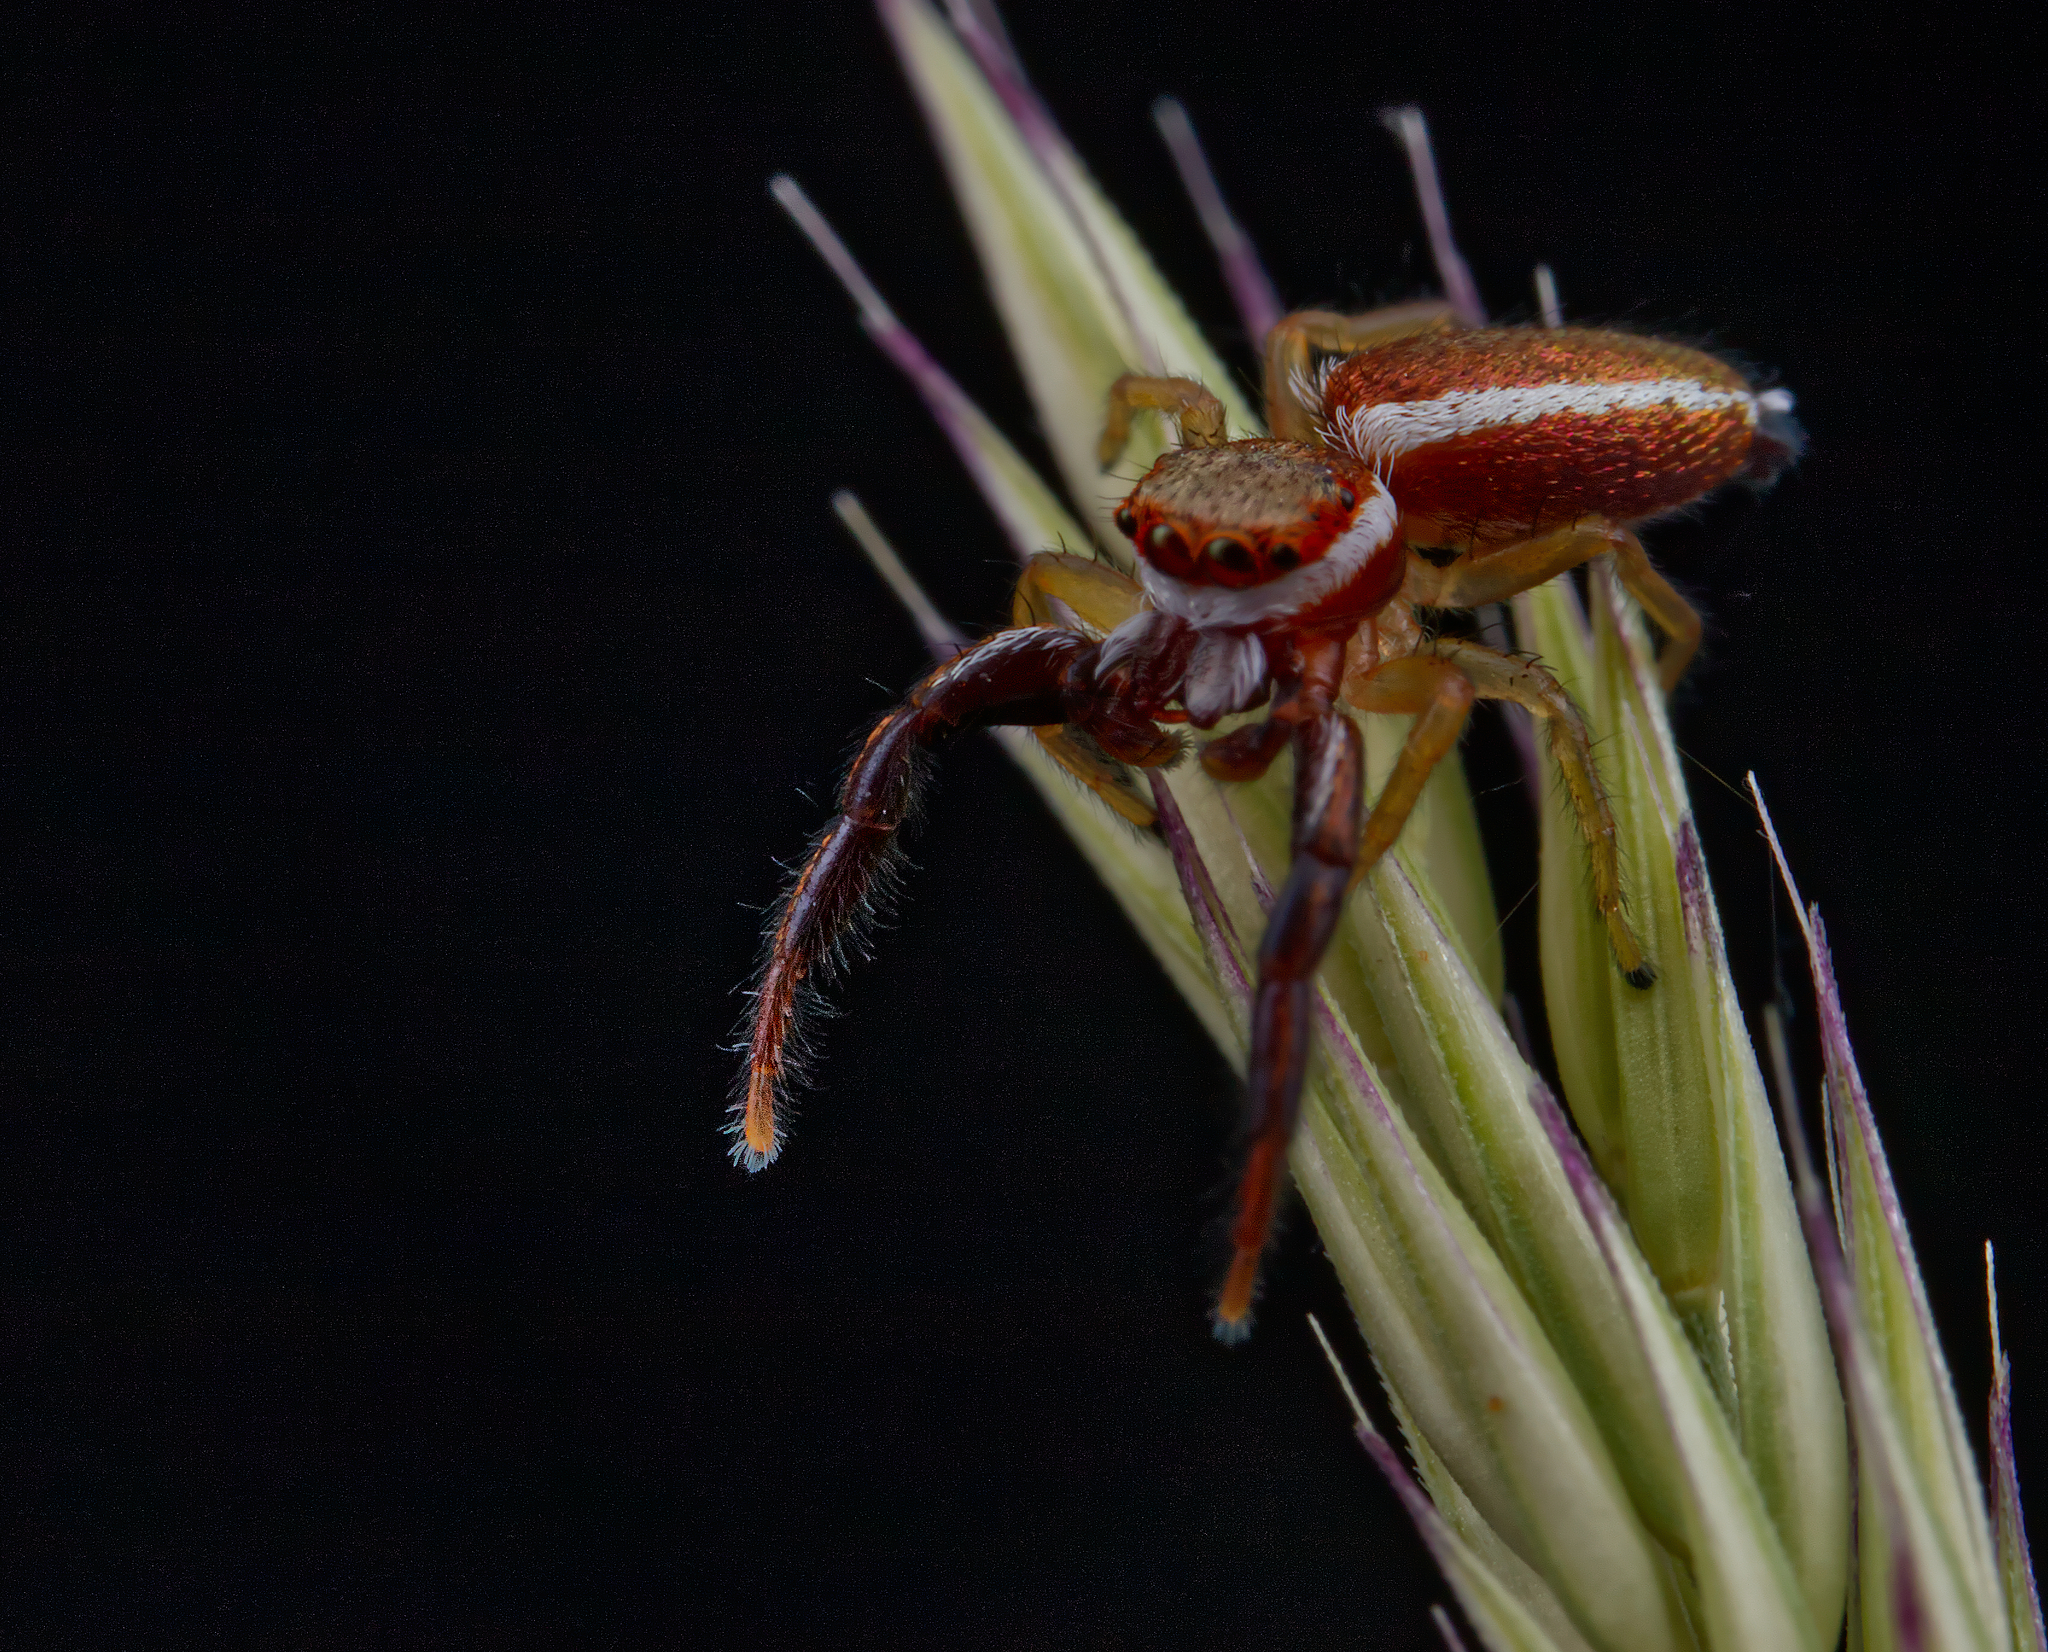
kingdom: Animalia
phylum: Arthropoda
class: Arachnida
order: Araneae
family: Salticidae
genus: Hentzia
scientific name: Hentzia palmarum
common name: Common hentz jumping spider
